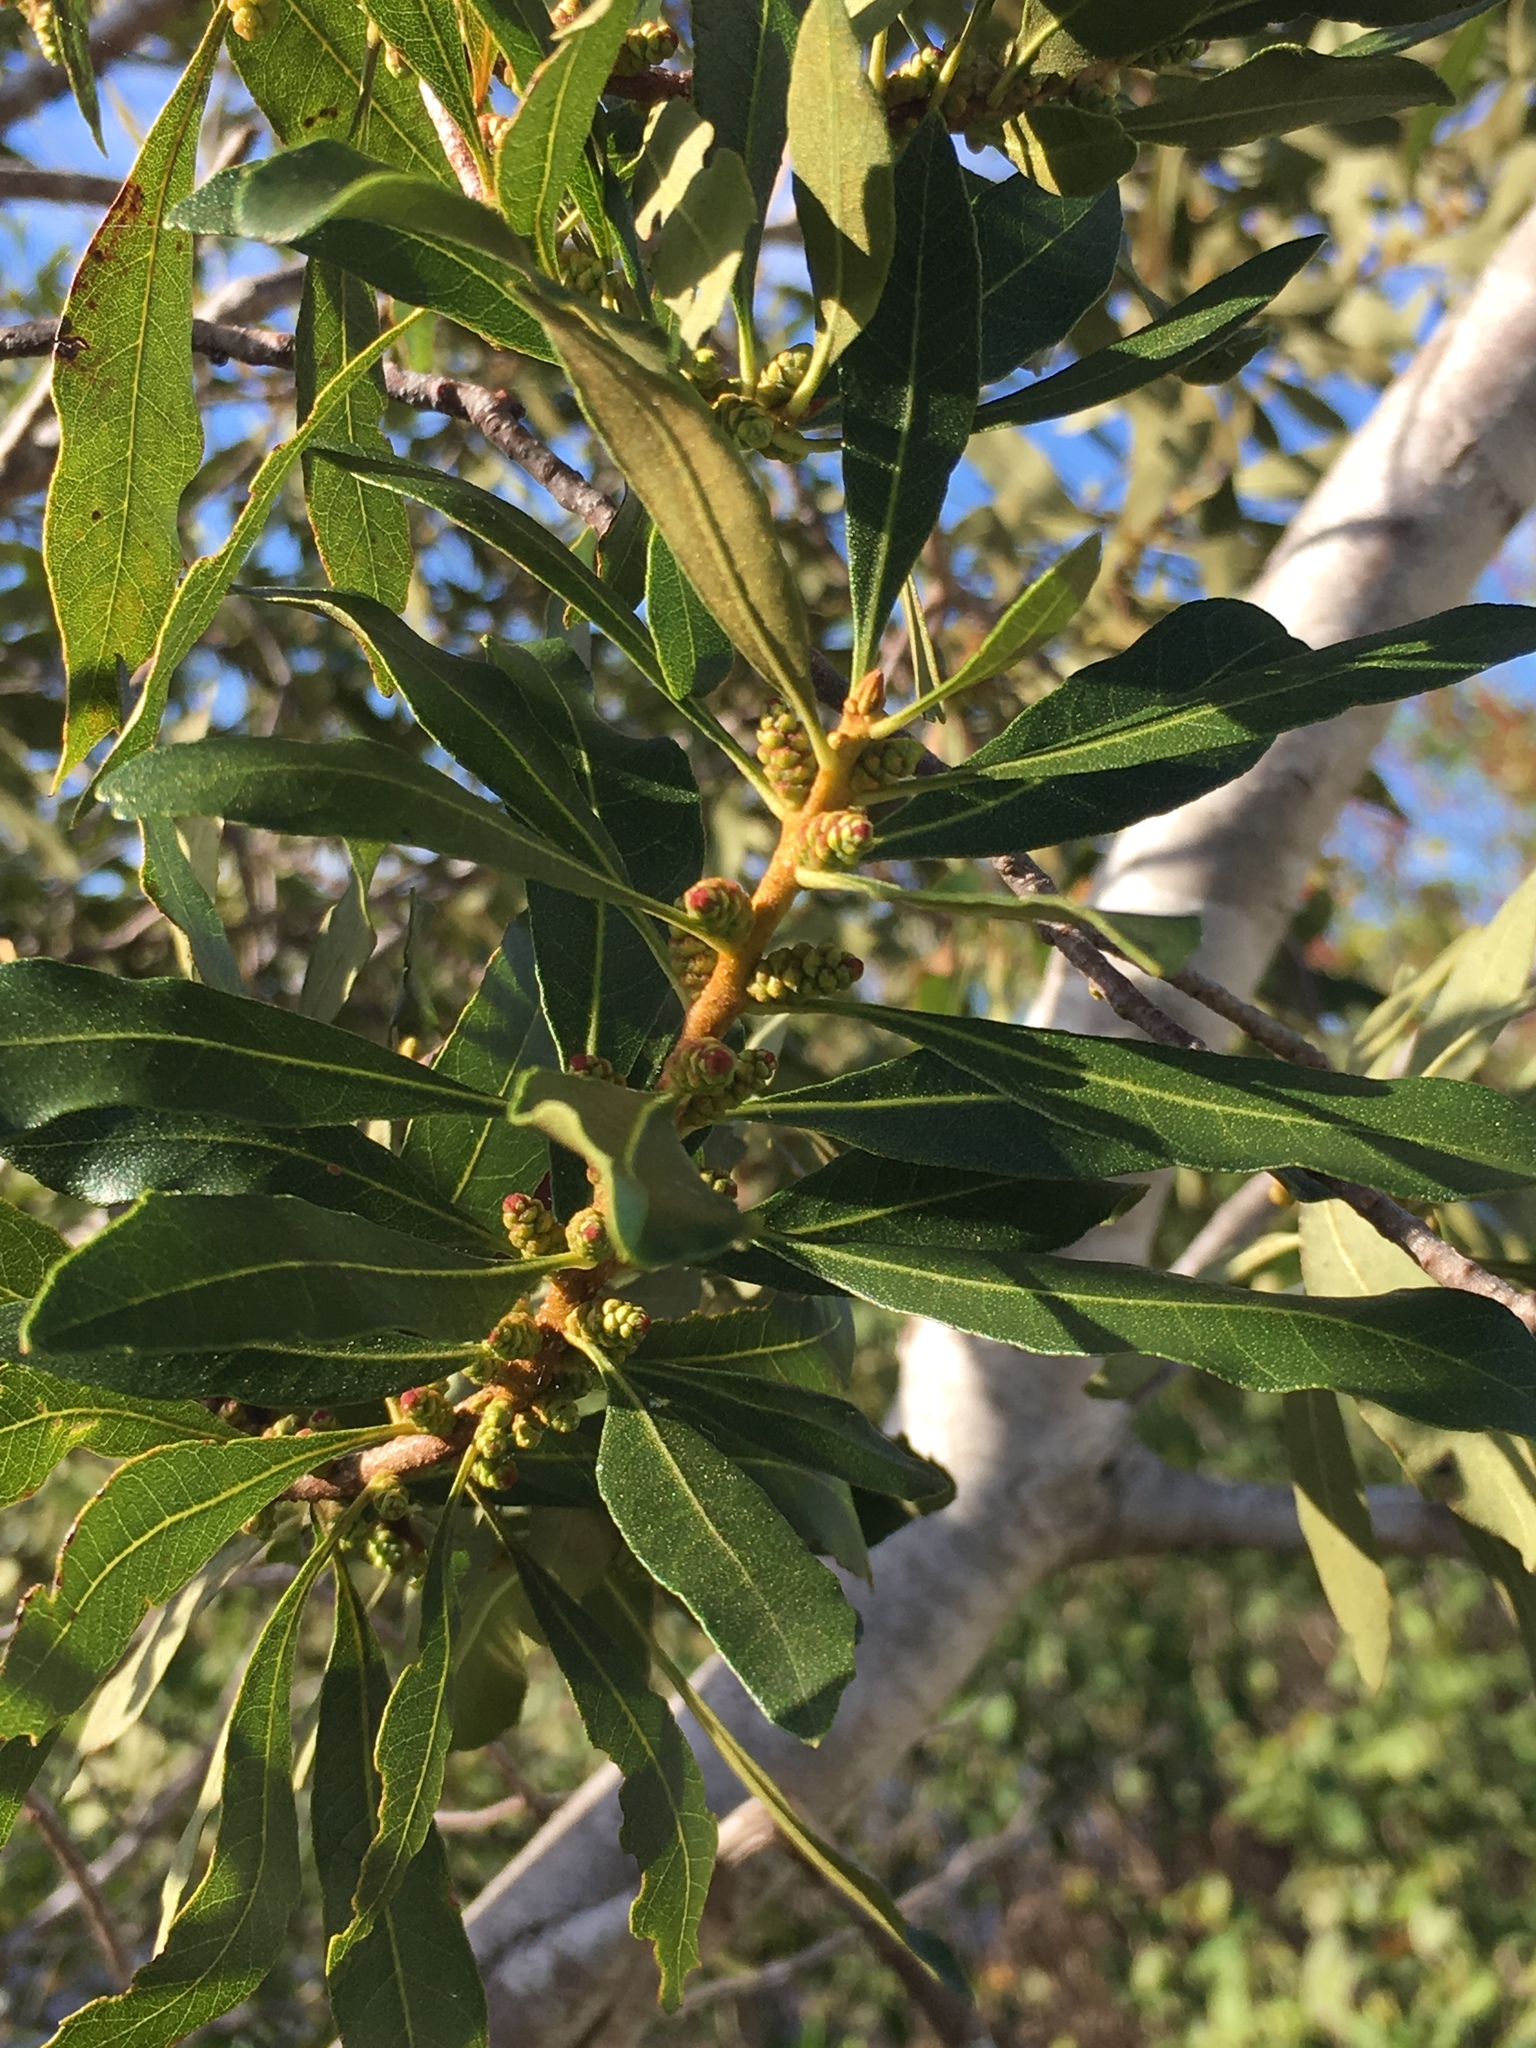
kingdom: Plantae
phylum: Tracheophyta
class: Magnoliopsida
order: Fagales
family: Myricaceae
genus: Morella
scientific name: Morella cerifera
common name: Wax myrtle
